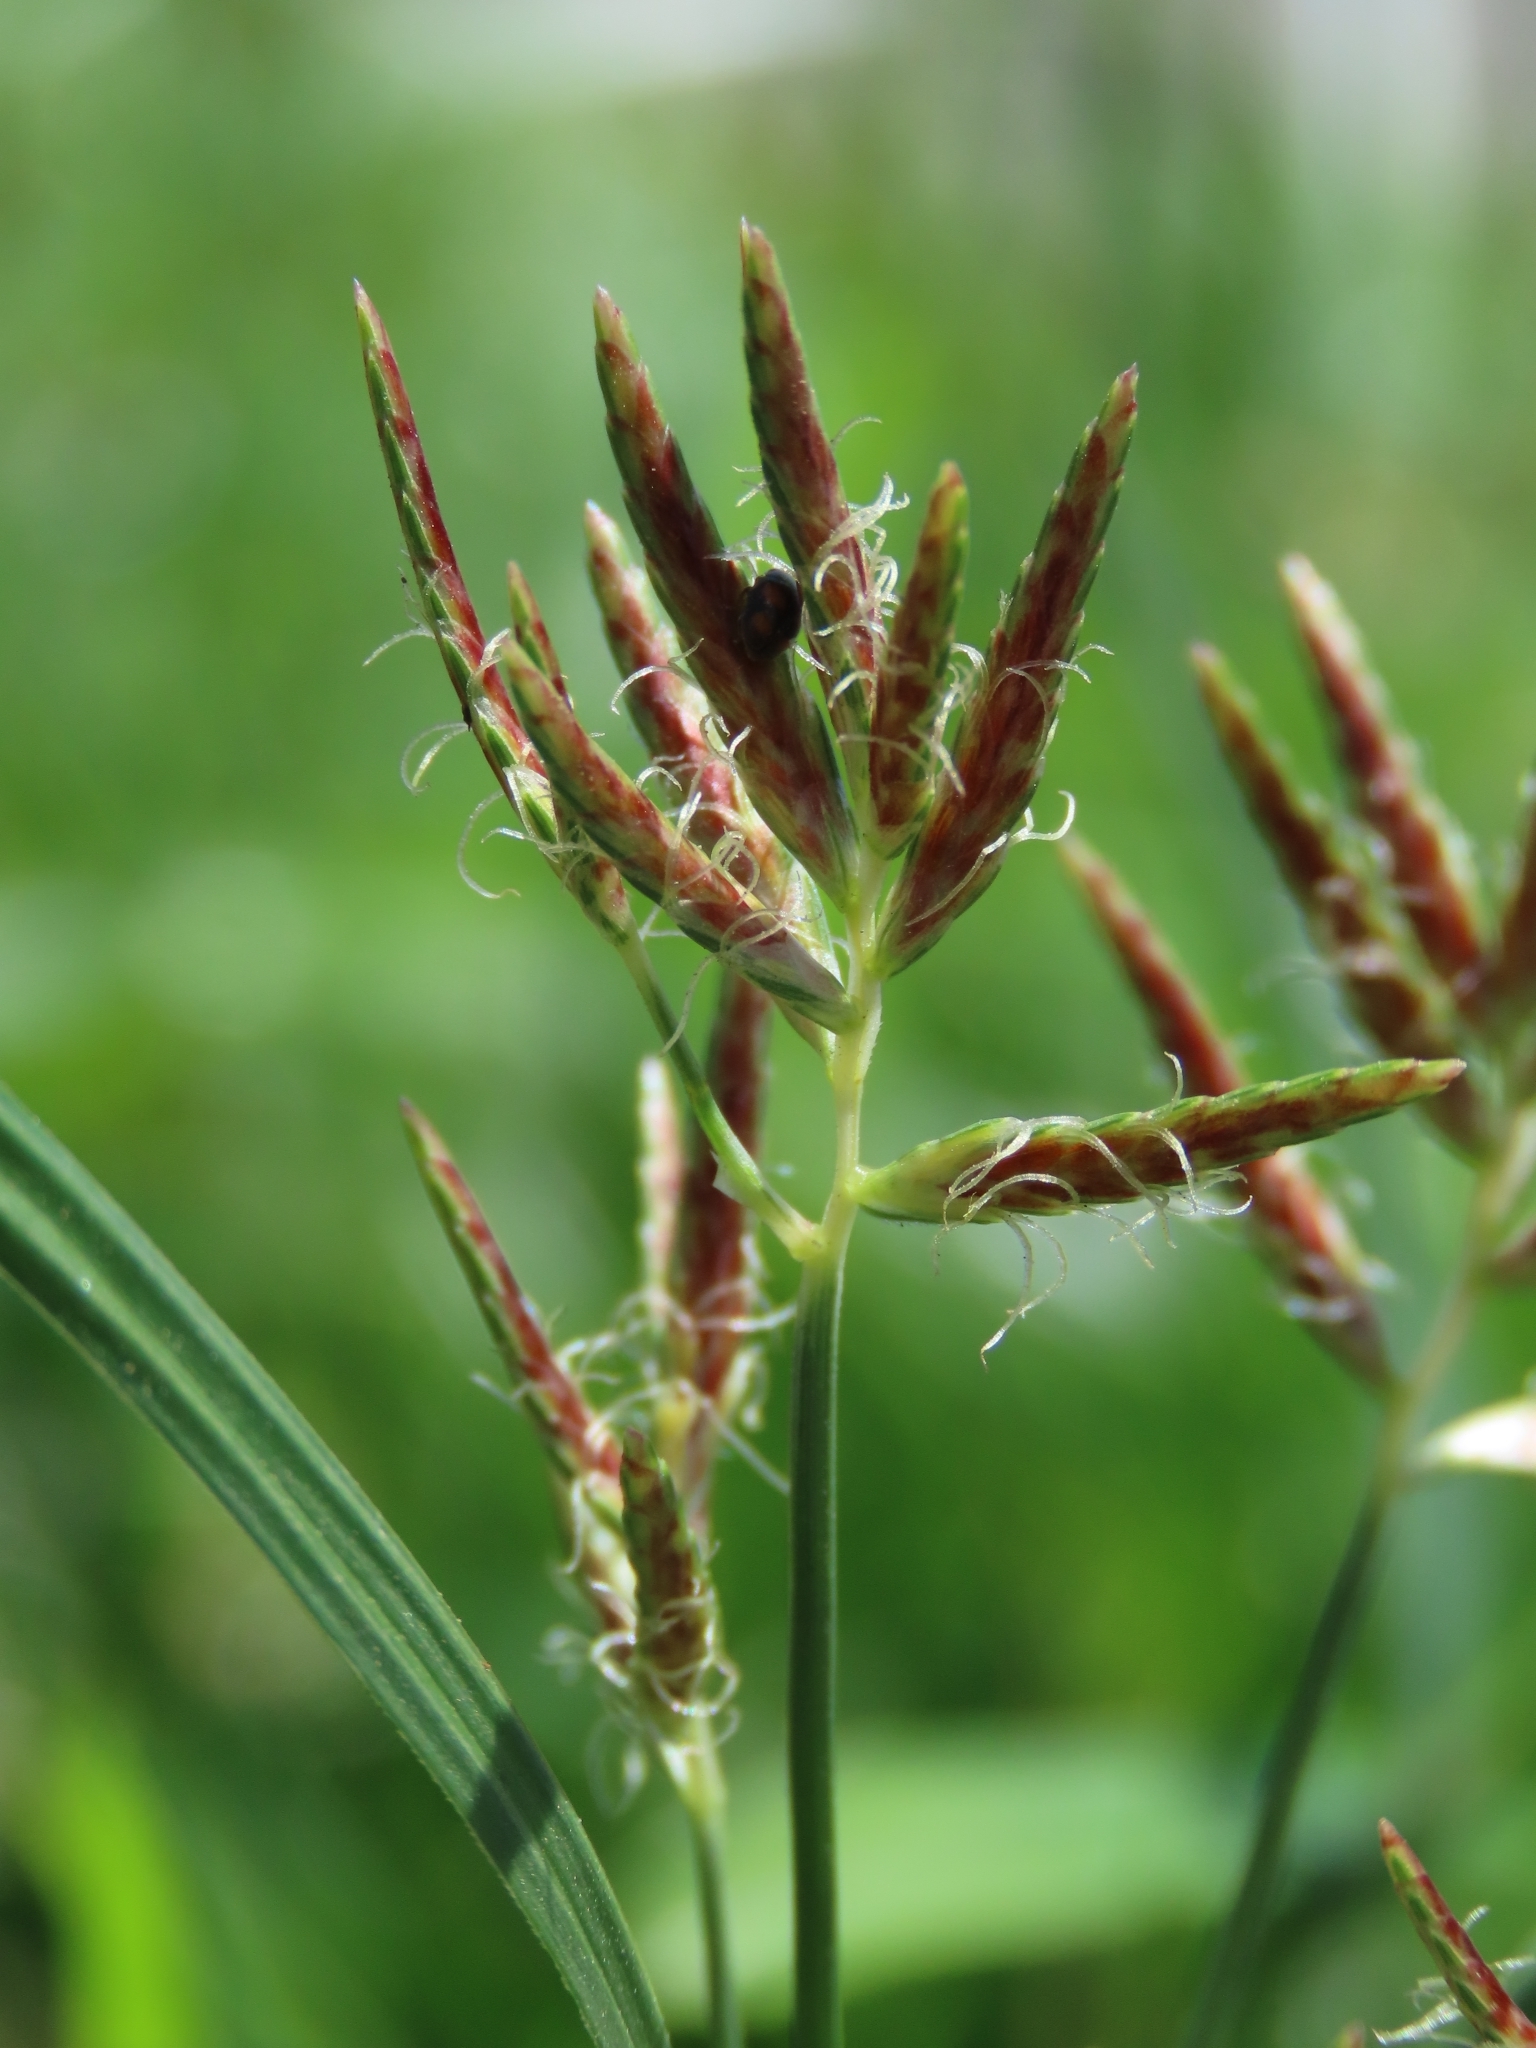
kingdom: Plantae
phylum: Tracheophyta
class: Liliopsida
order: Poales
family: Cyperaceae
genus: Cyperus
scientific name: Cyperus rotundus
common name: Nutgrass
